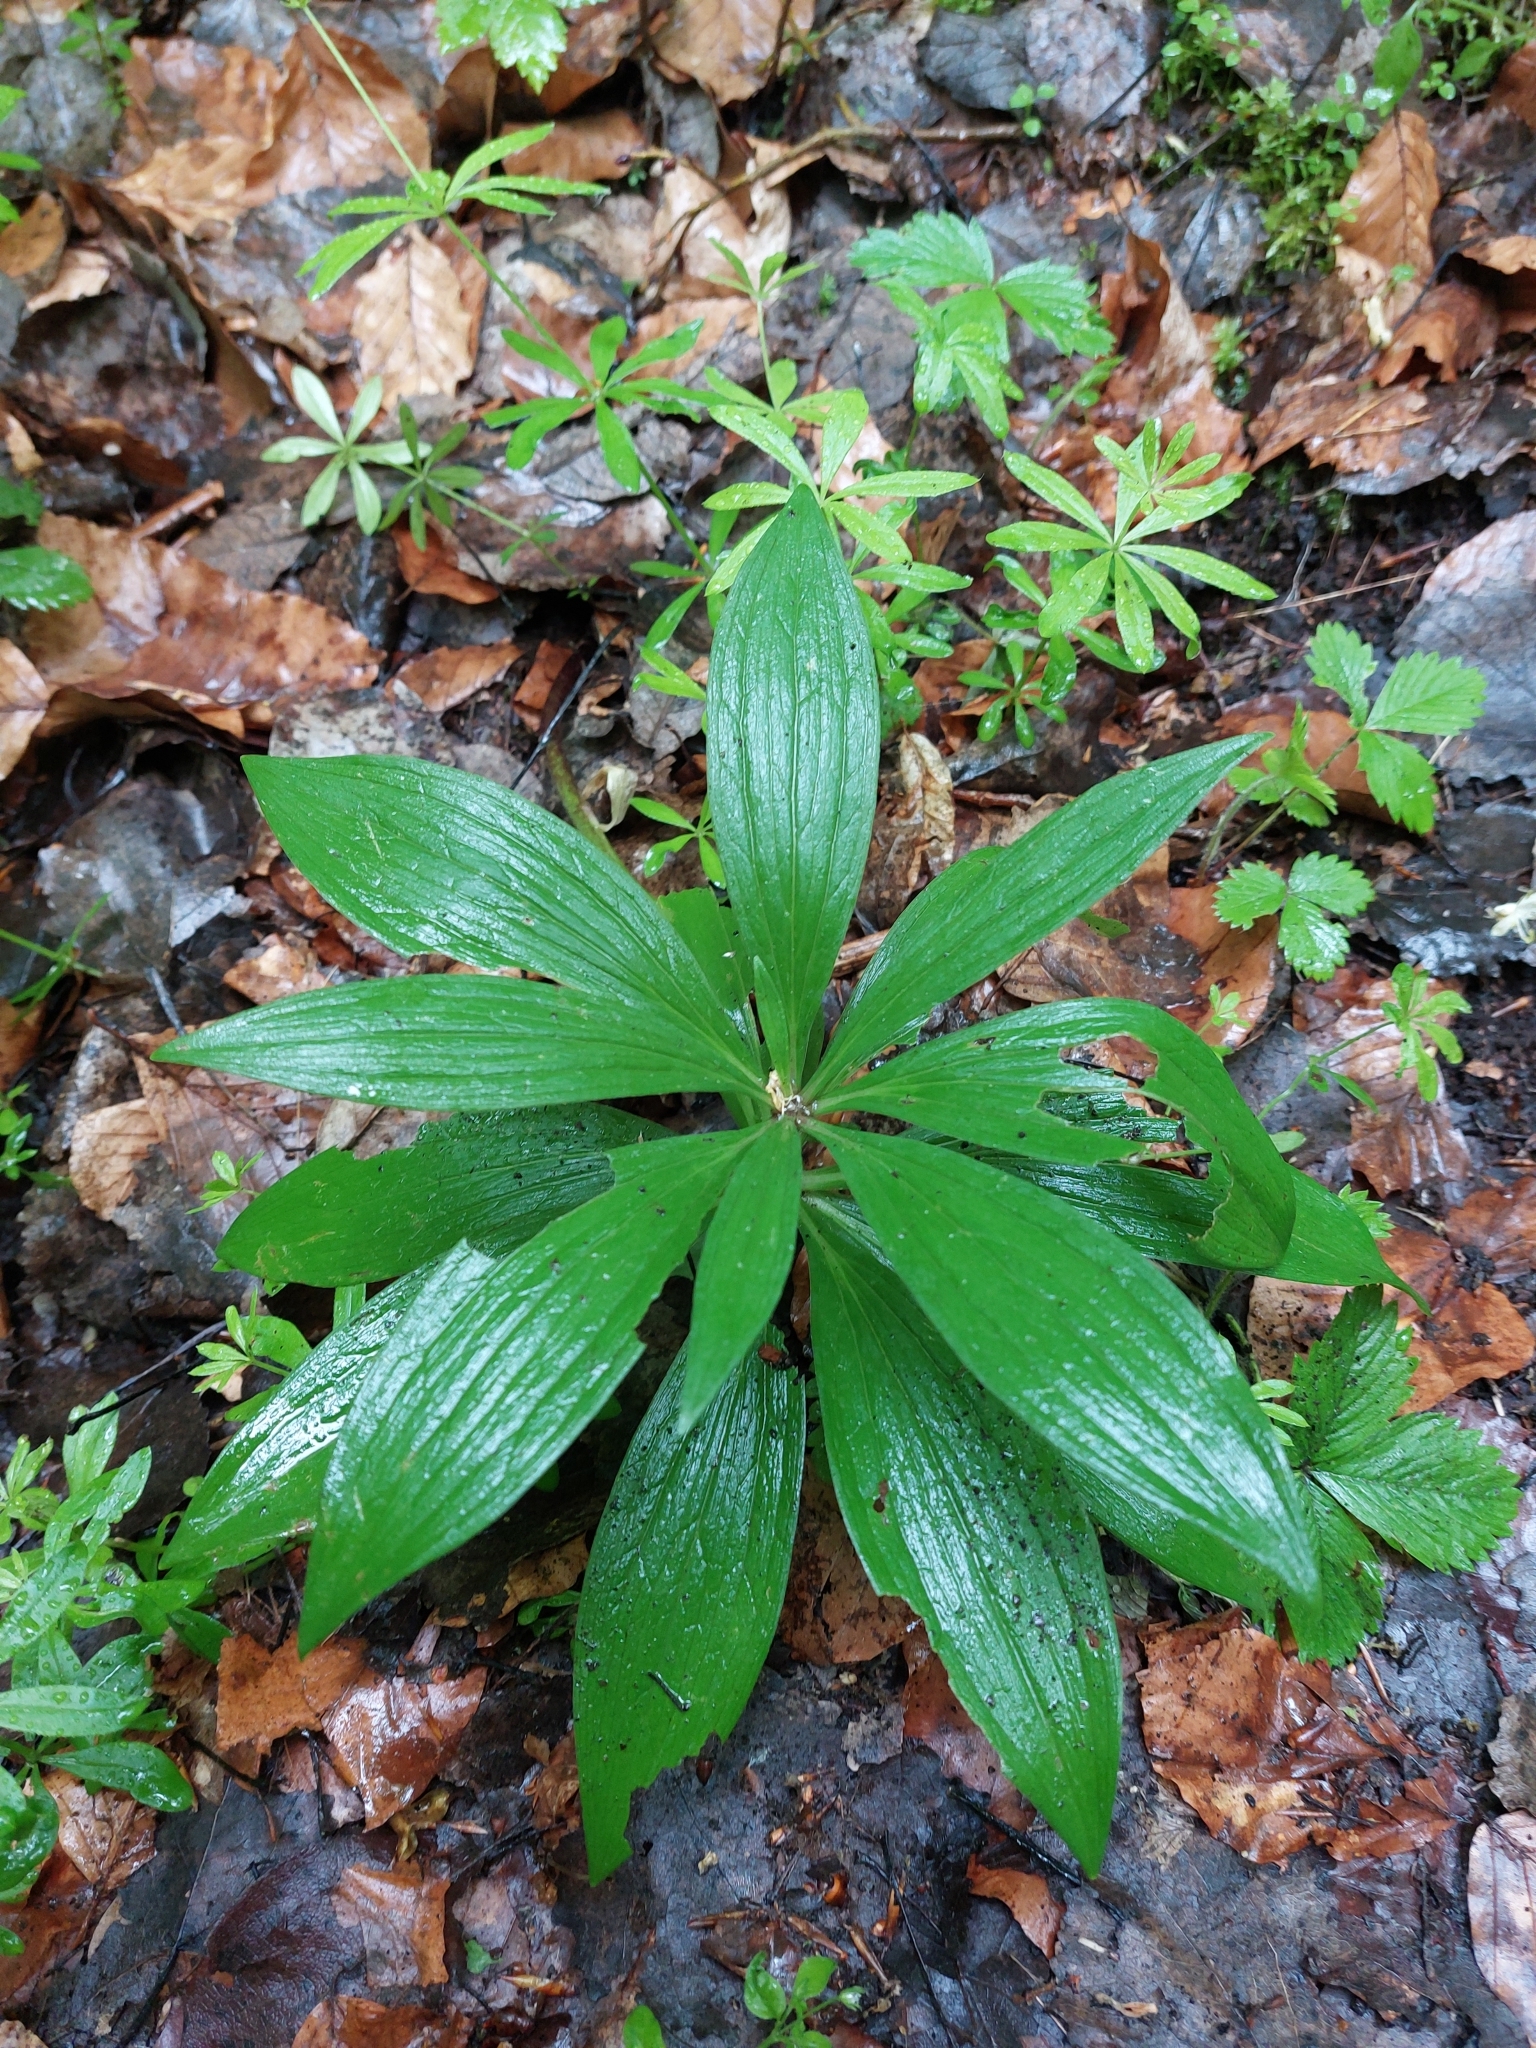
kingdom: Plantae
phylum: Tracheophyta
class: Liliopsida
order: Liliales
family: Liliaceae
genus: Lilium
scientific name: Lilium martagon
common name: Martagon lily
